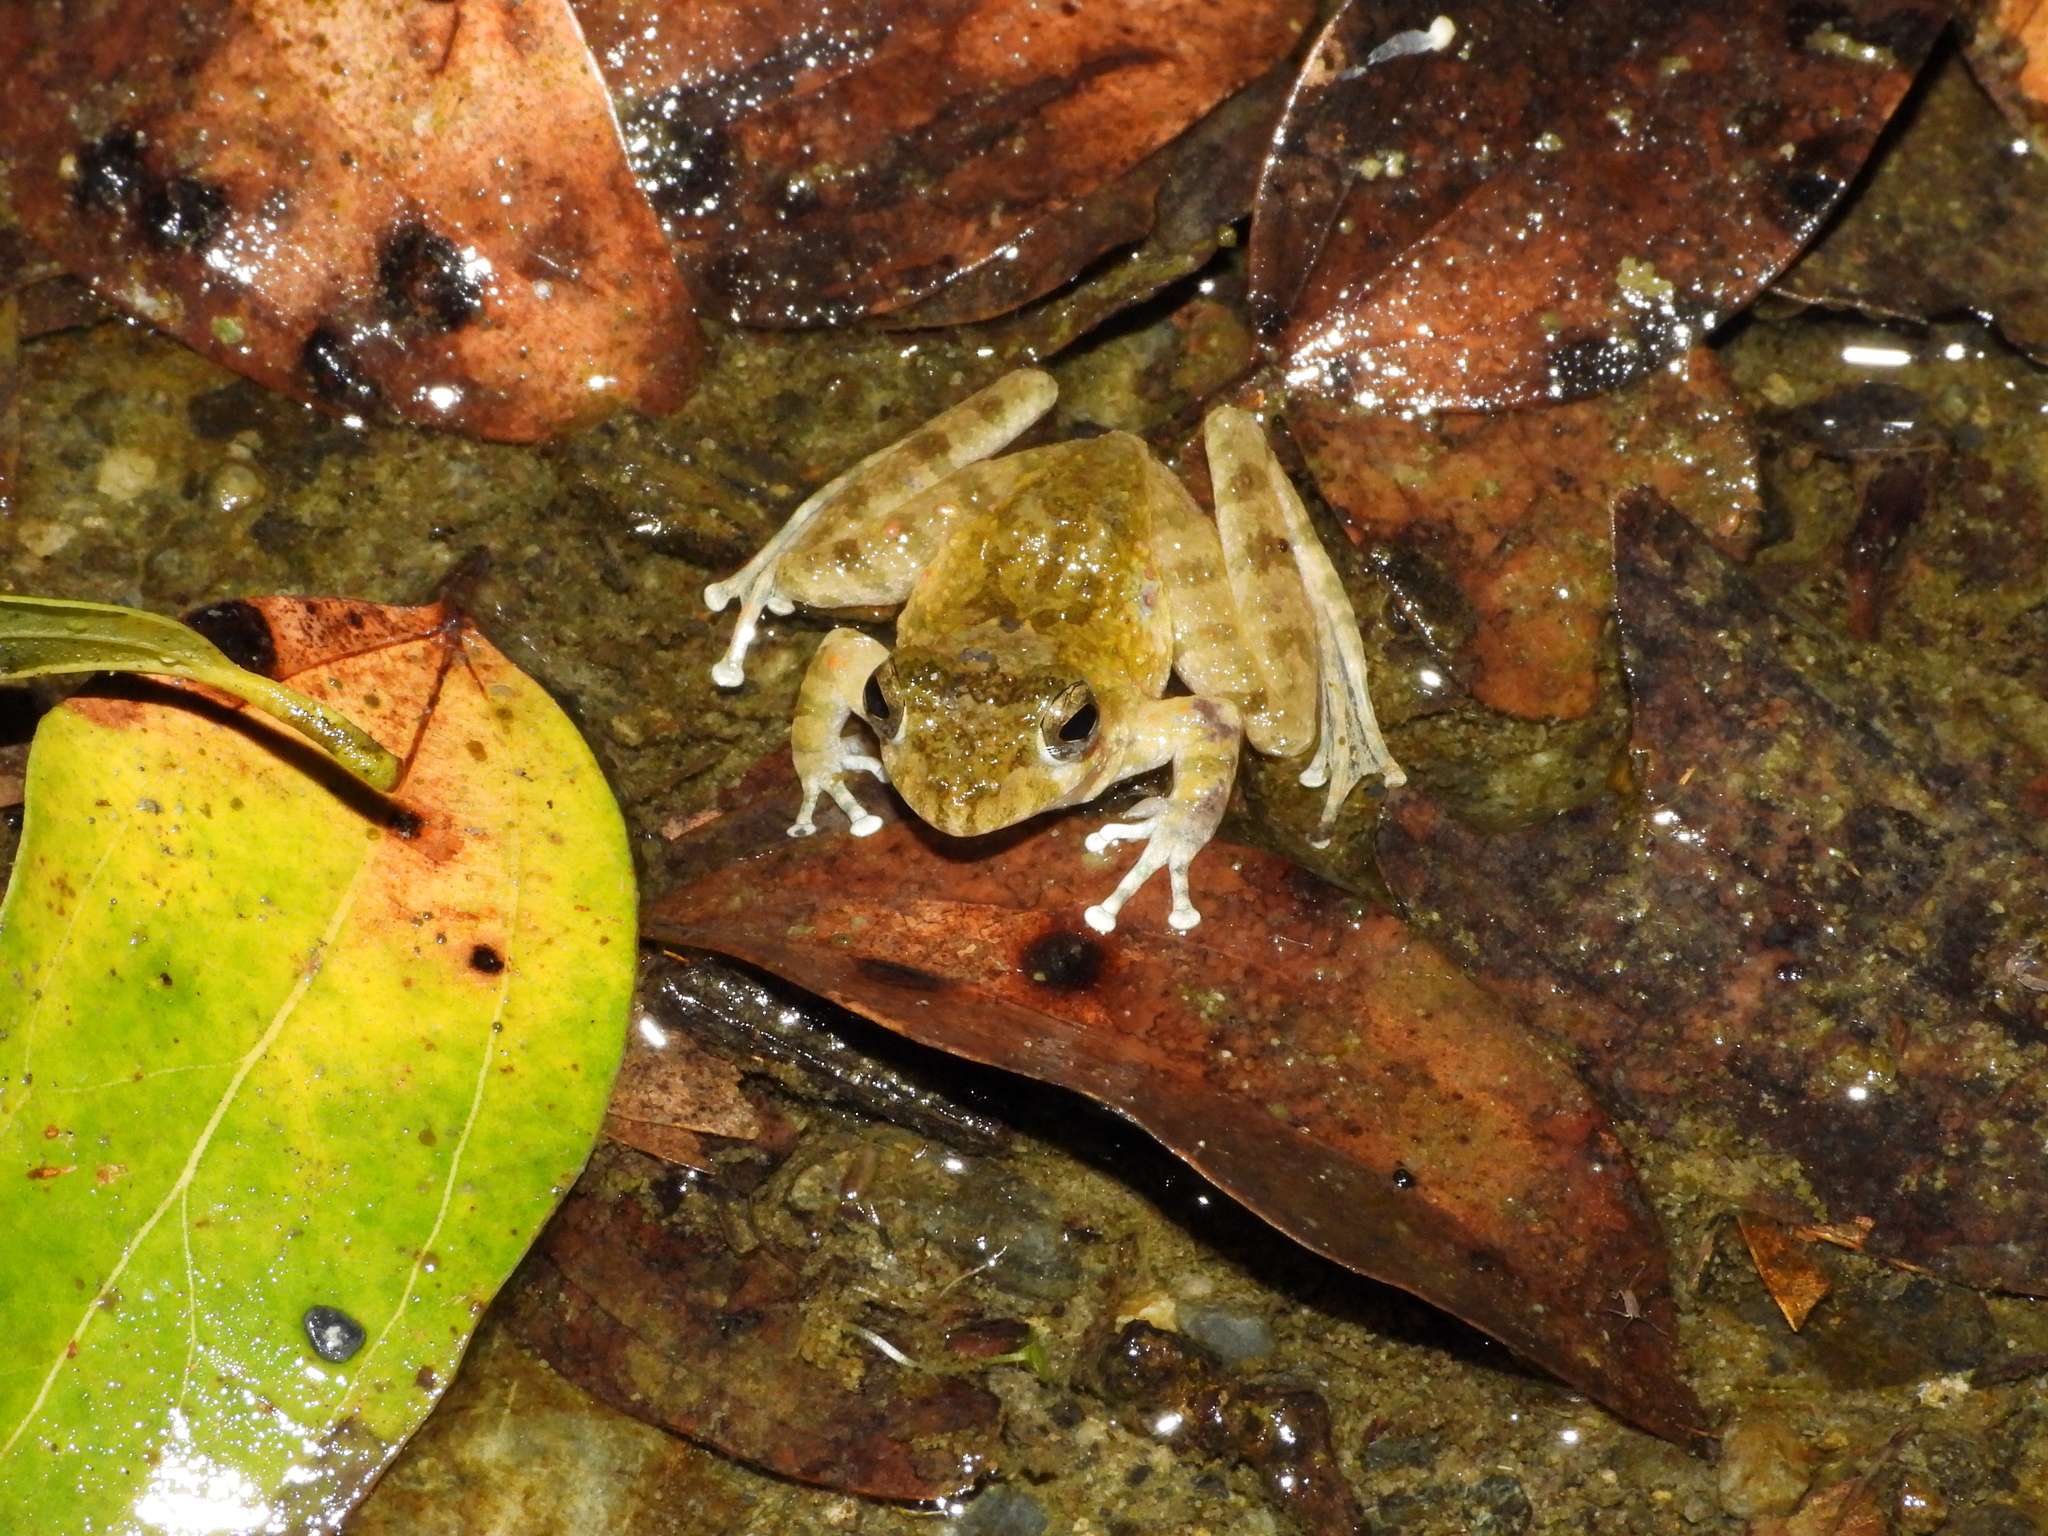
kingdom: Animalia
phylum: Chordata
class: Amphibia
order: Anura
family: Rhacophoridae
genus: Buergeria
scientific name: Buergeria otai
